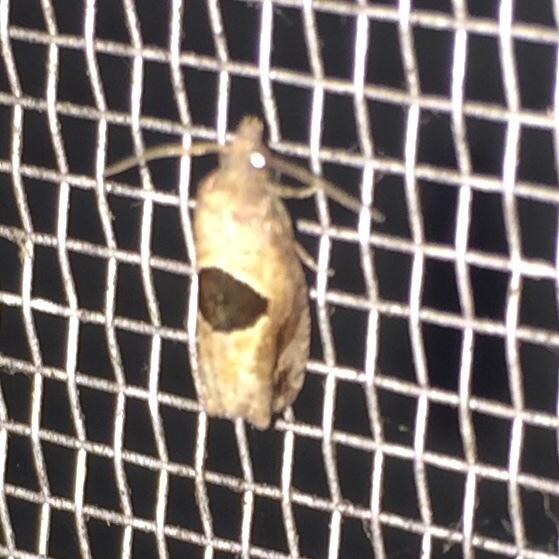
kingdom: Animalia
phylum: Arthropoda
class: Insecta
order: Lepidoptera
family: Tortricidae
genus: Pelochrista
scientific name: Pelochrista dorsisignatana
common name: Triangle-backed pelochrista moth
